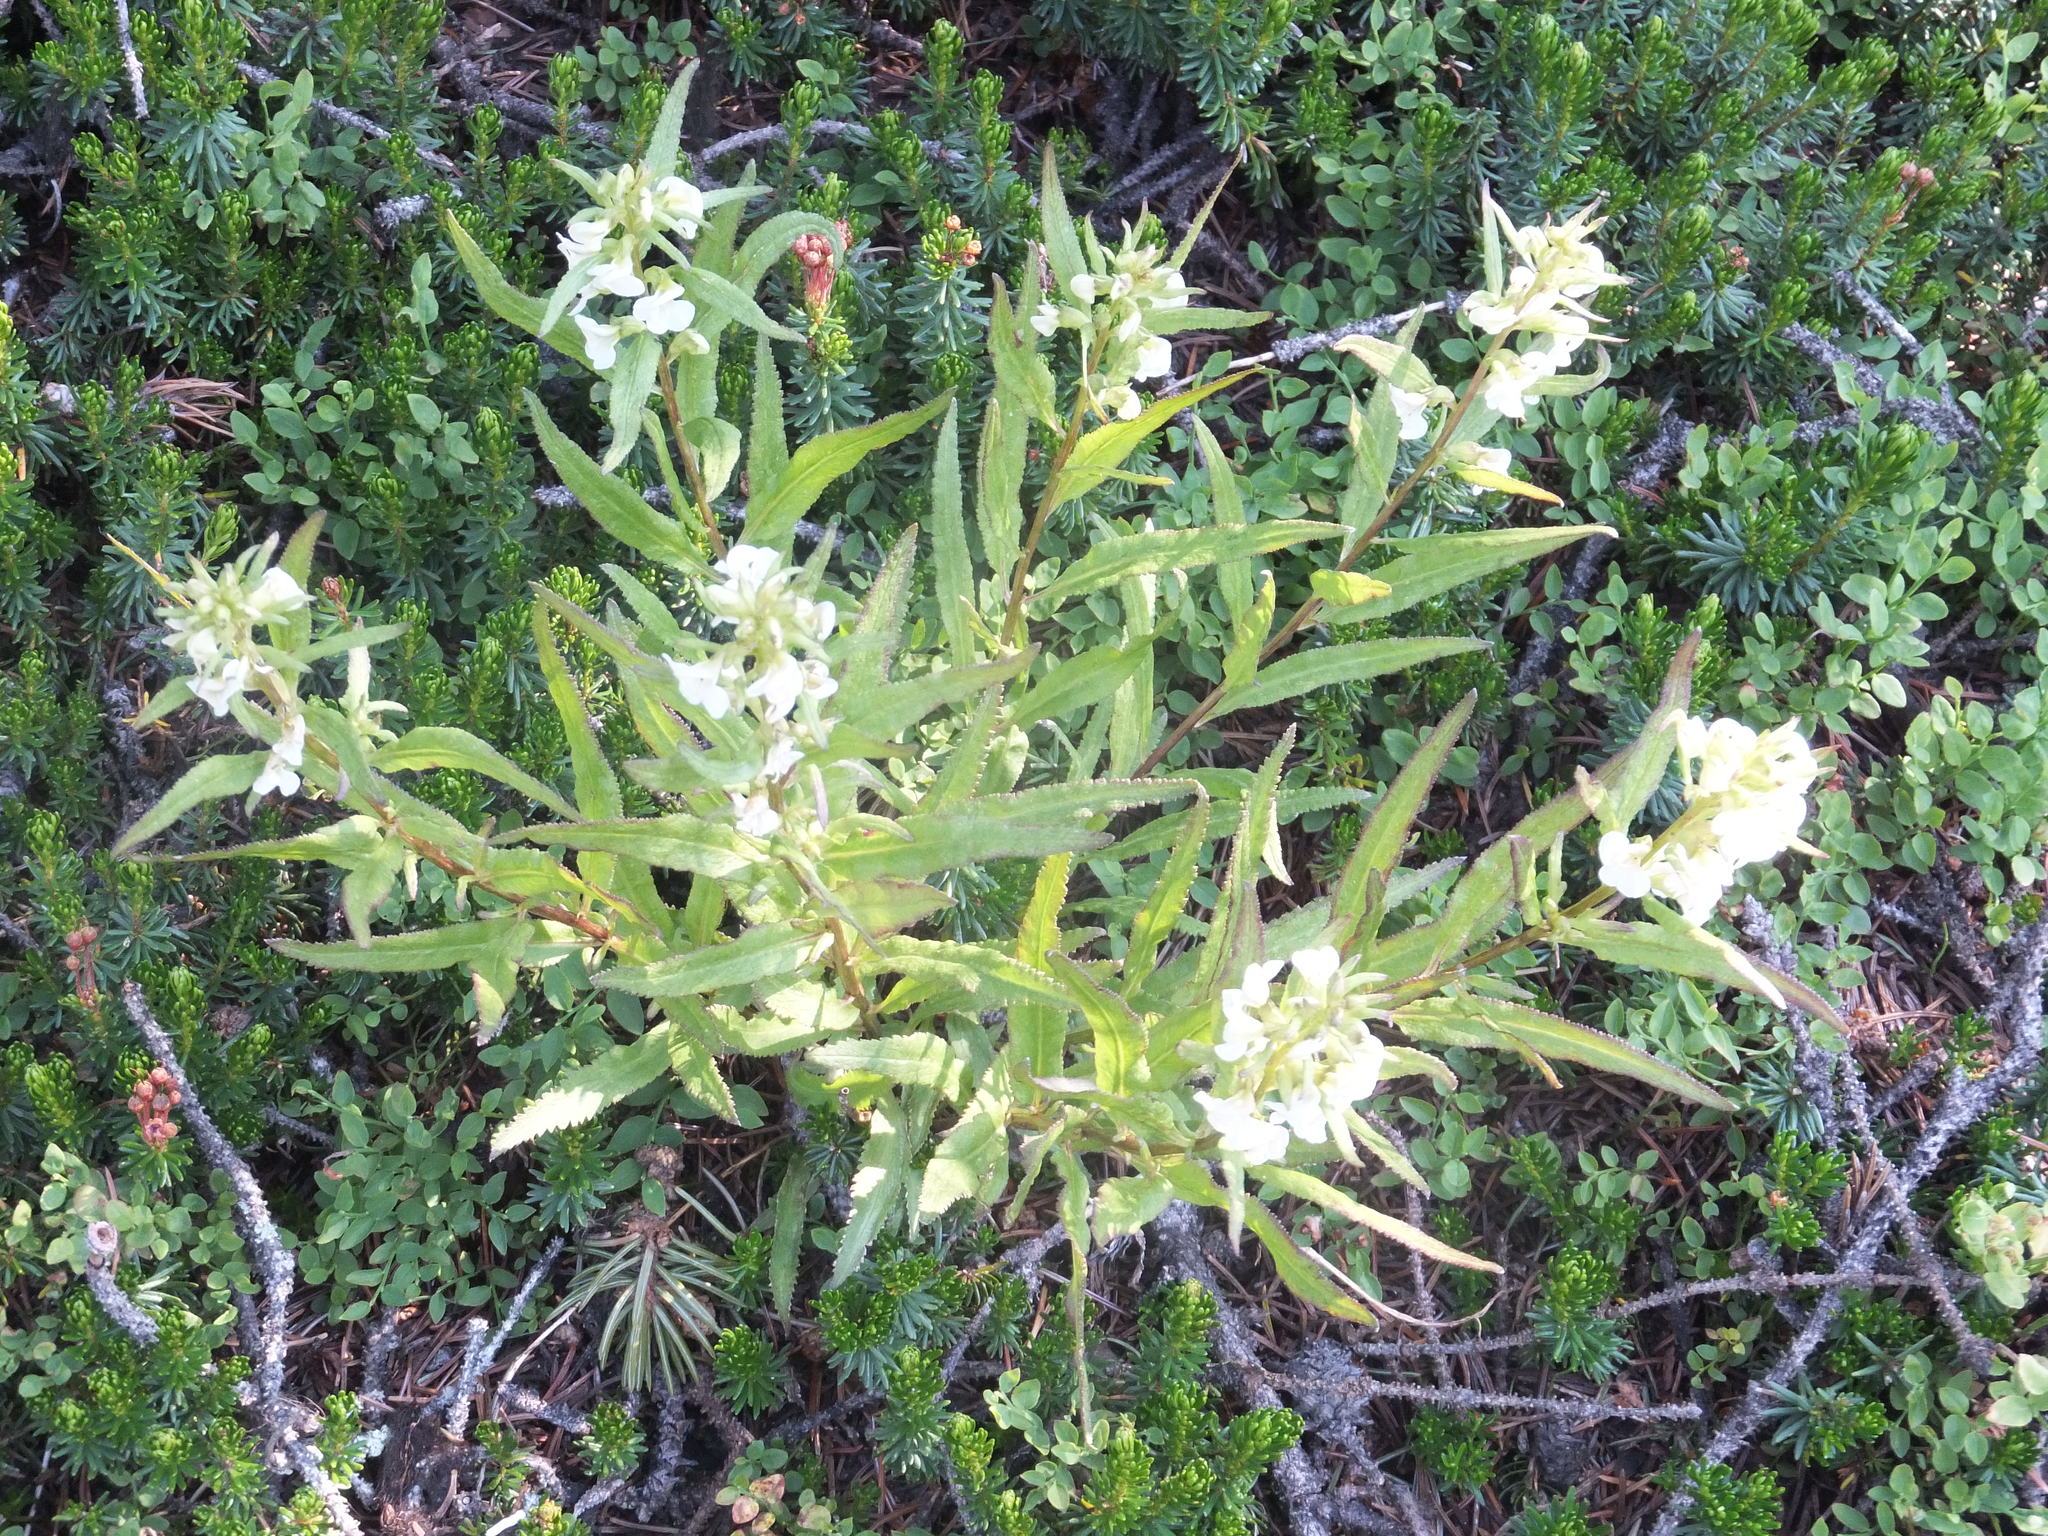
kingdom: Plantae
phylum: Tracheophyta
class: Magnoliopsida
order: Lamiales
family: Orobanchaceae
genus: Pedicularis
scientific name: Pedicularis racemosa
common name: Leafy lousewort
